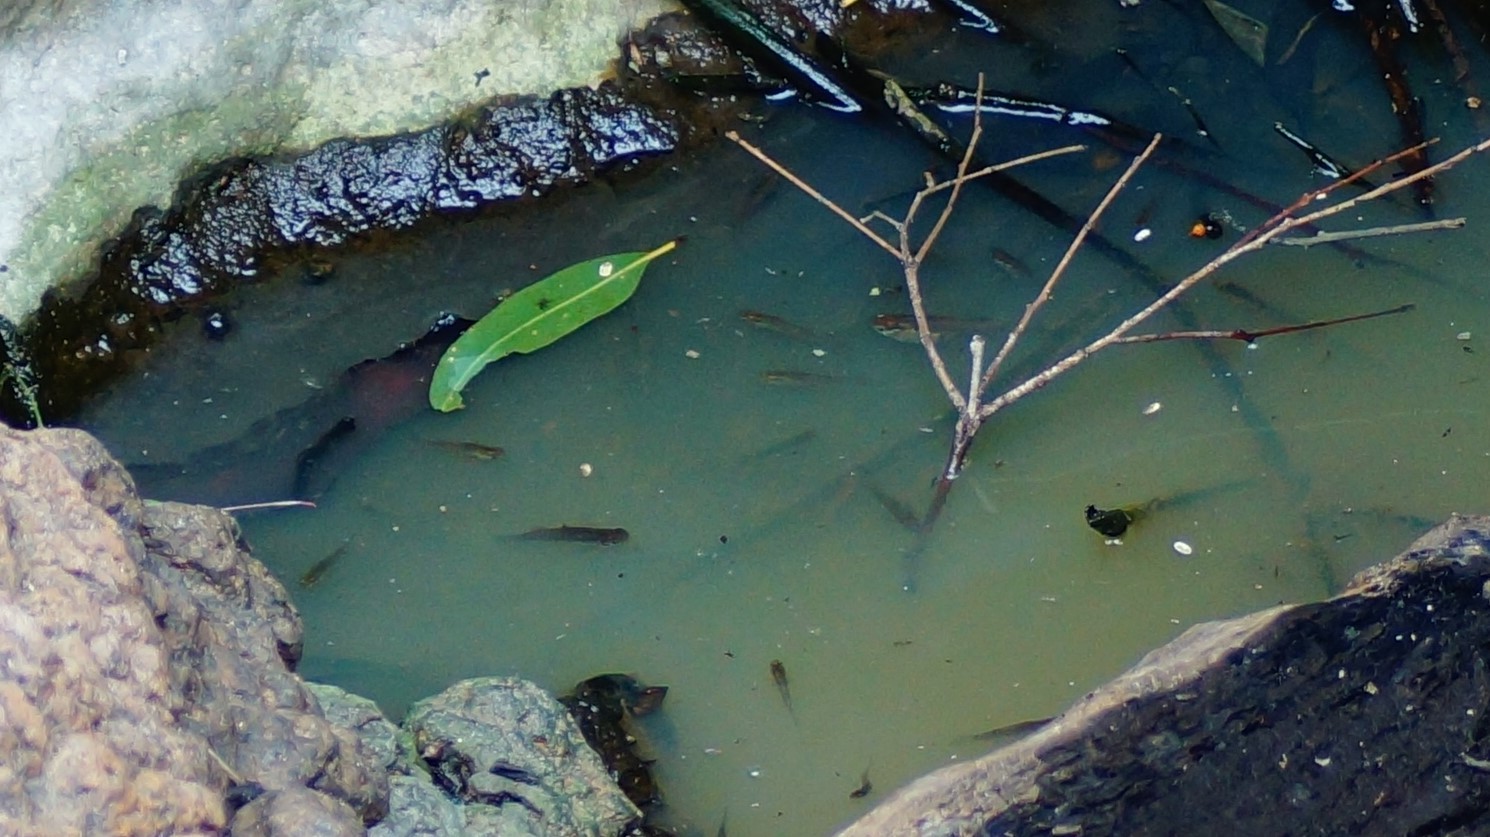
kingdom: Animalia
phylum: Chordata
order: Cyprinodontiformes
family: Poeciliidae
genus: Gambusia
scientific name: Gambusia holbrooki
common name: Eastern mosquitofish
